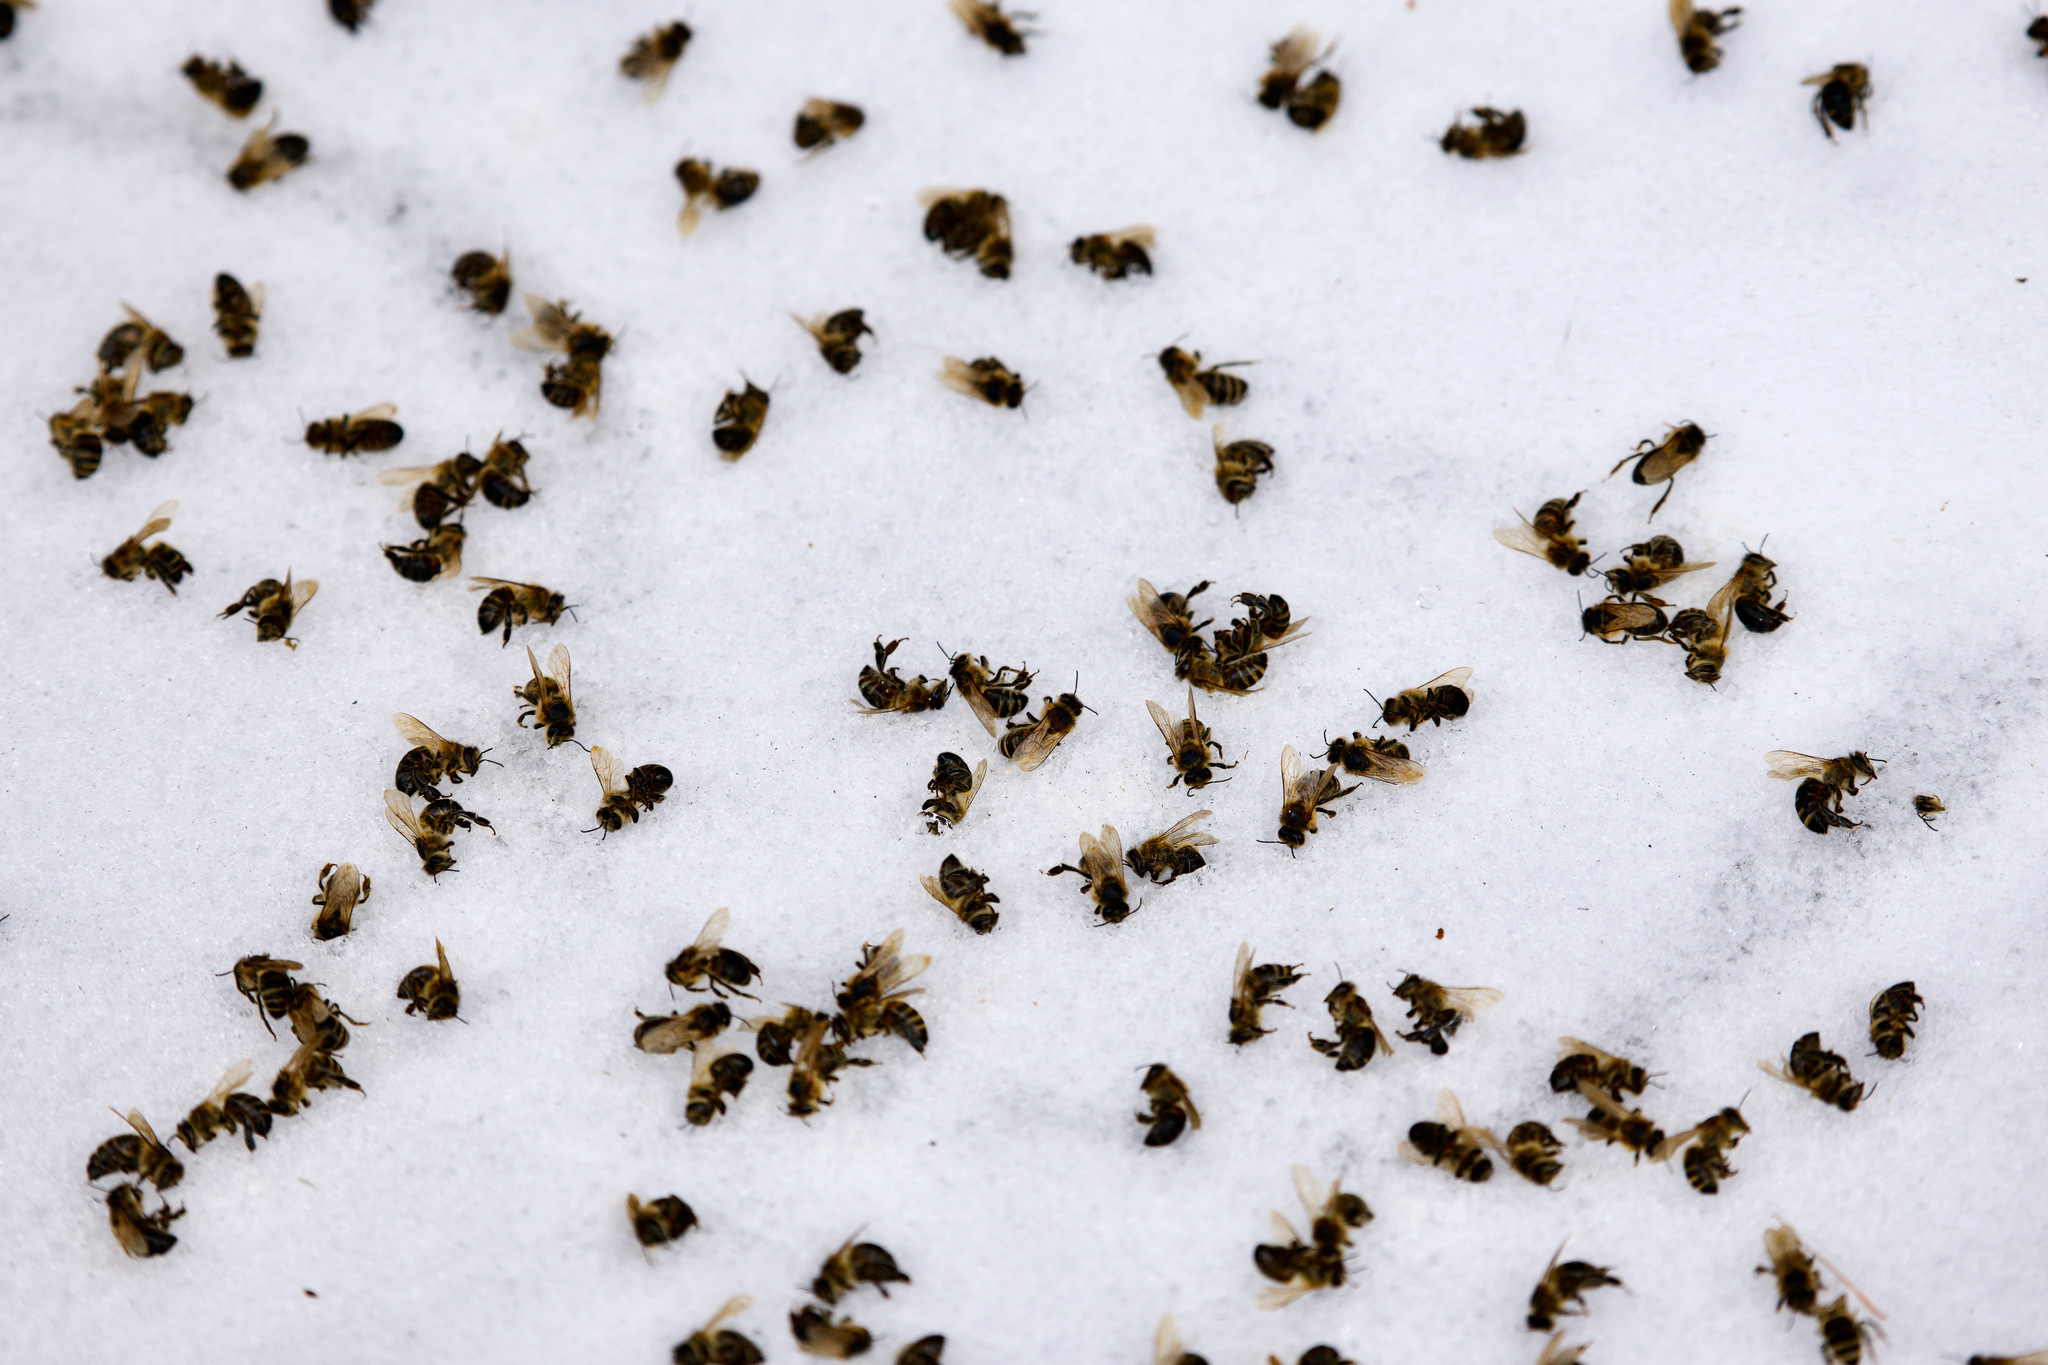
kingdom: Animalia
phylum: Arthropoda
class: Insecta
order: Hymenoptera
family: Apidae
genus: Apis
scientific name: Apis mellifera
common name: Honey bee
